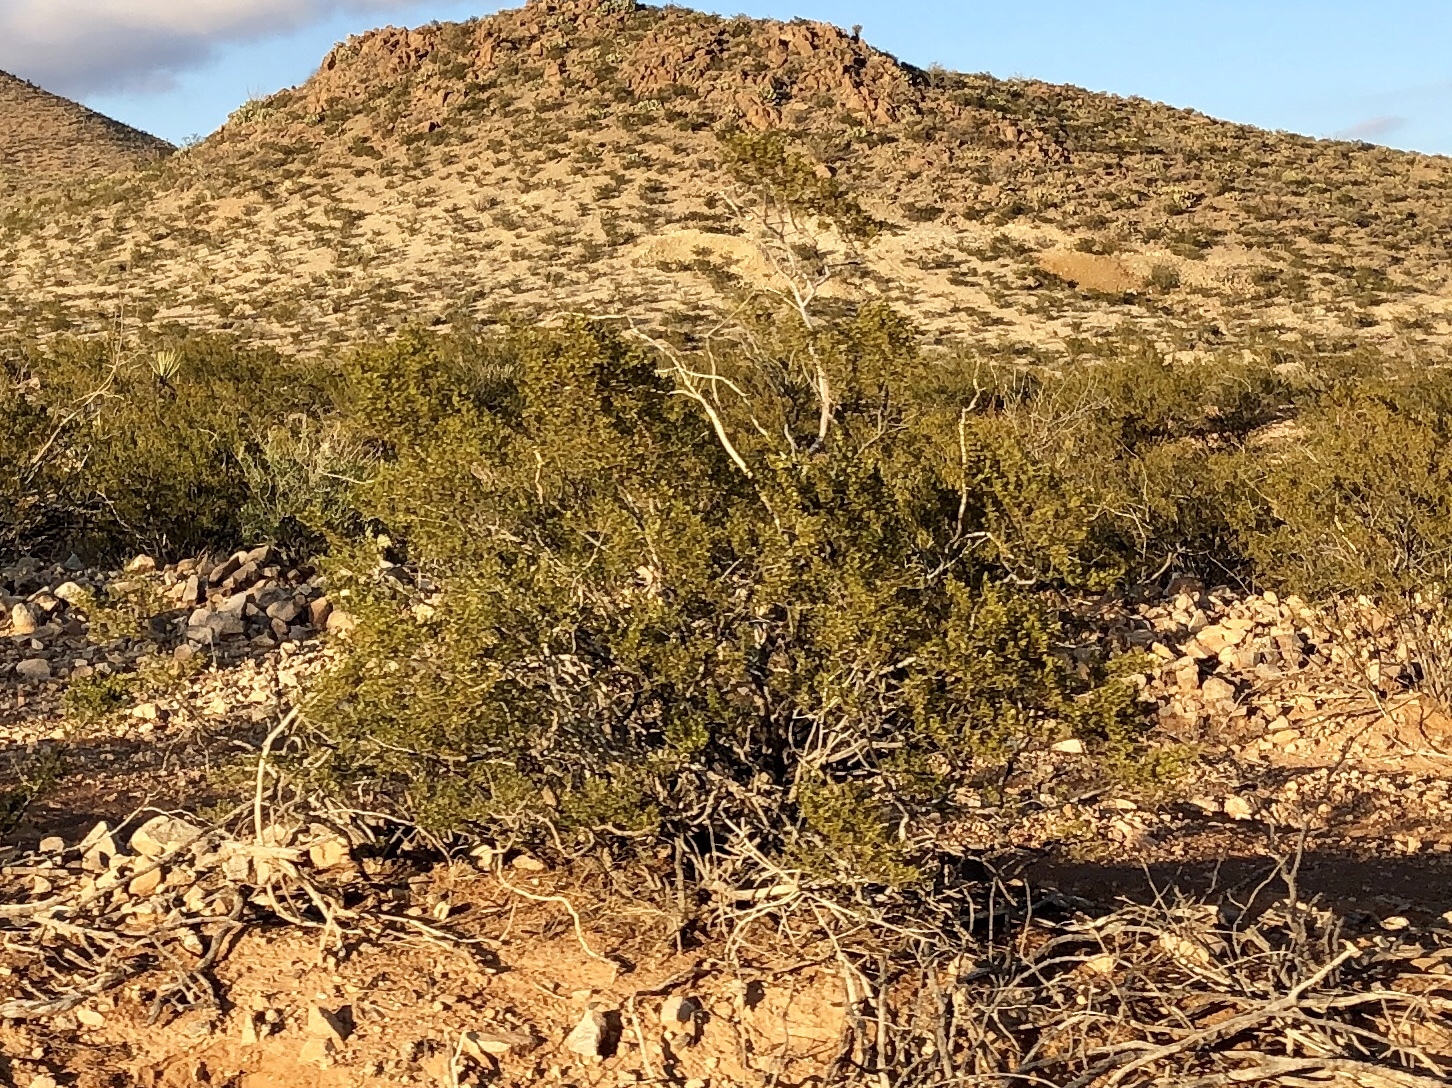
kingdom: Plantae
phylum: Tracheophyta
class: Magnoliopsida
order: Zygophyllales
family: Zygophyllaceae
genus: Larrea
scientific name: Larrea tridentata
